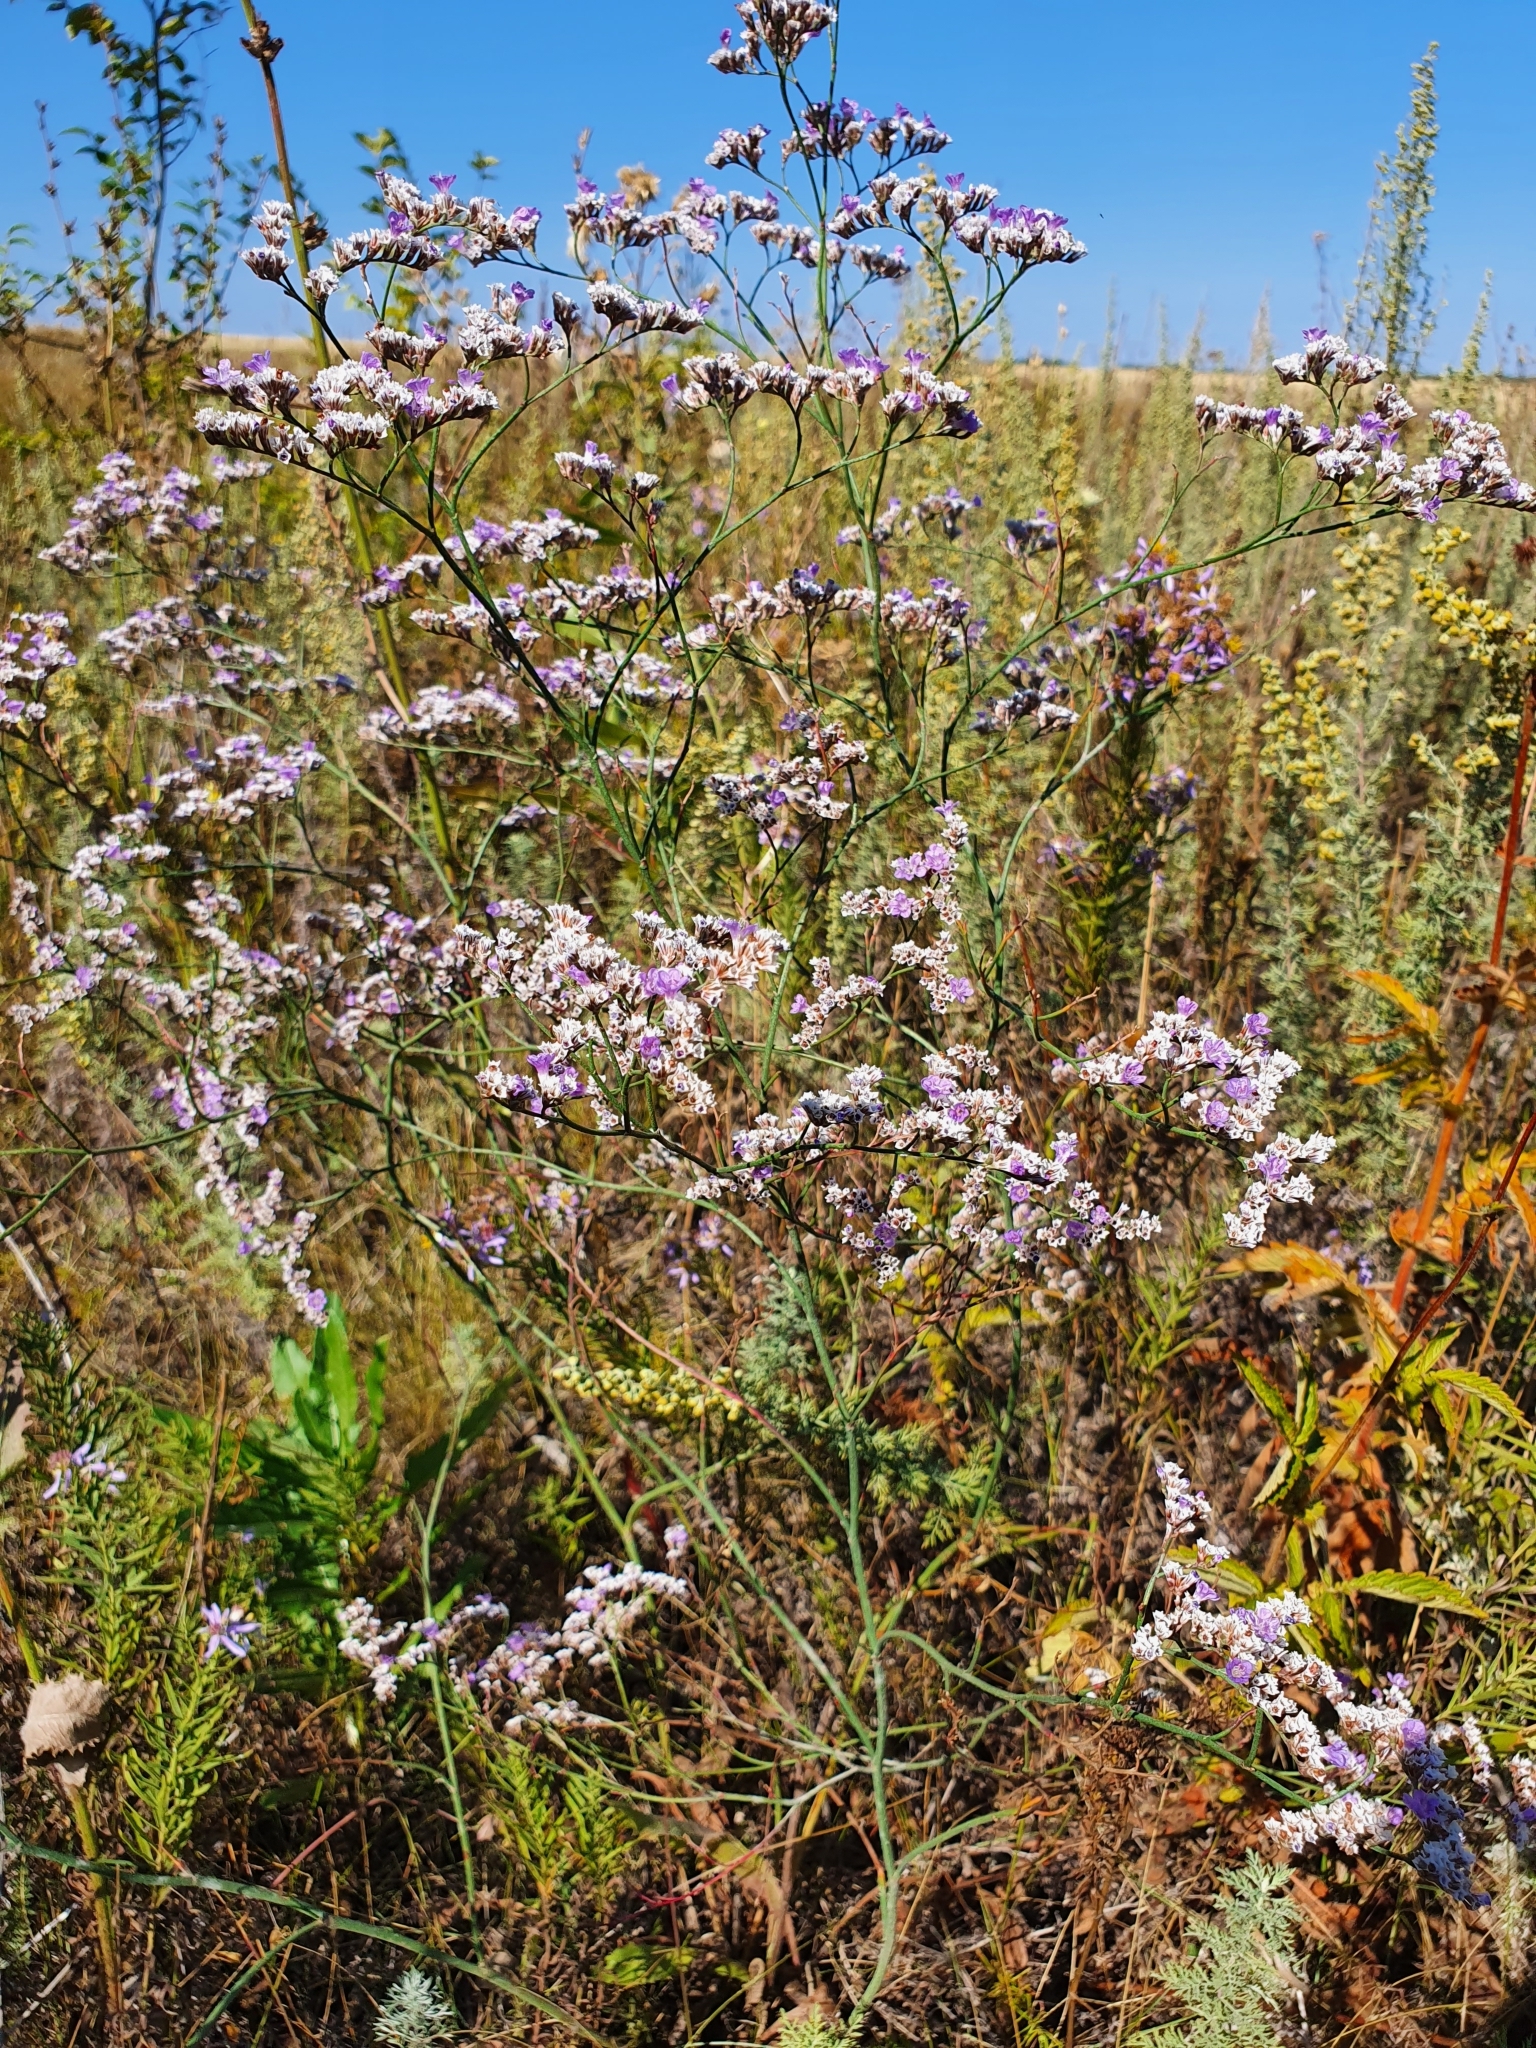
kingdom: Plantae
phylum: Tracheophyta
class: Magnoliopsida
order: Caryophyllales
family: Plumbaginaceae
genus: Limonium
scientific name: Limonium gmelini
